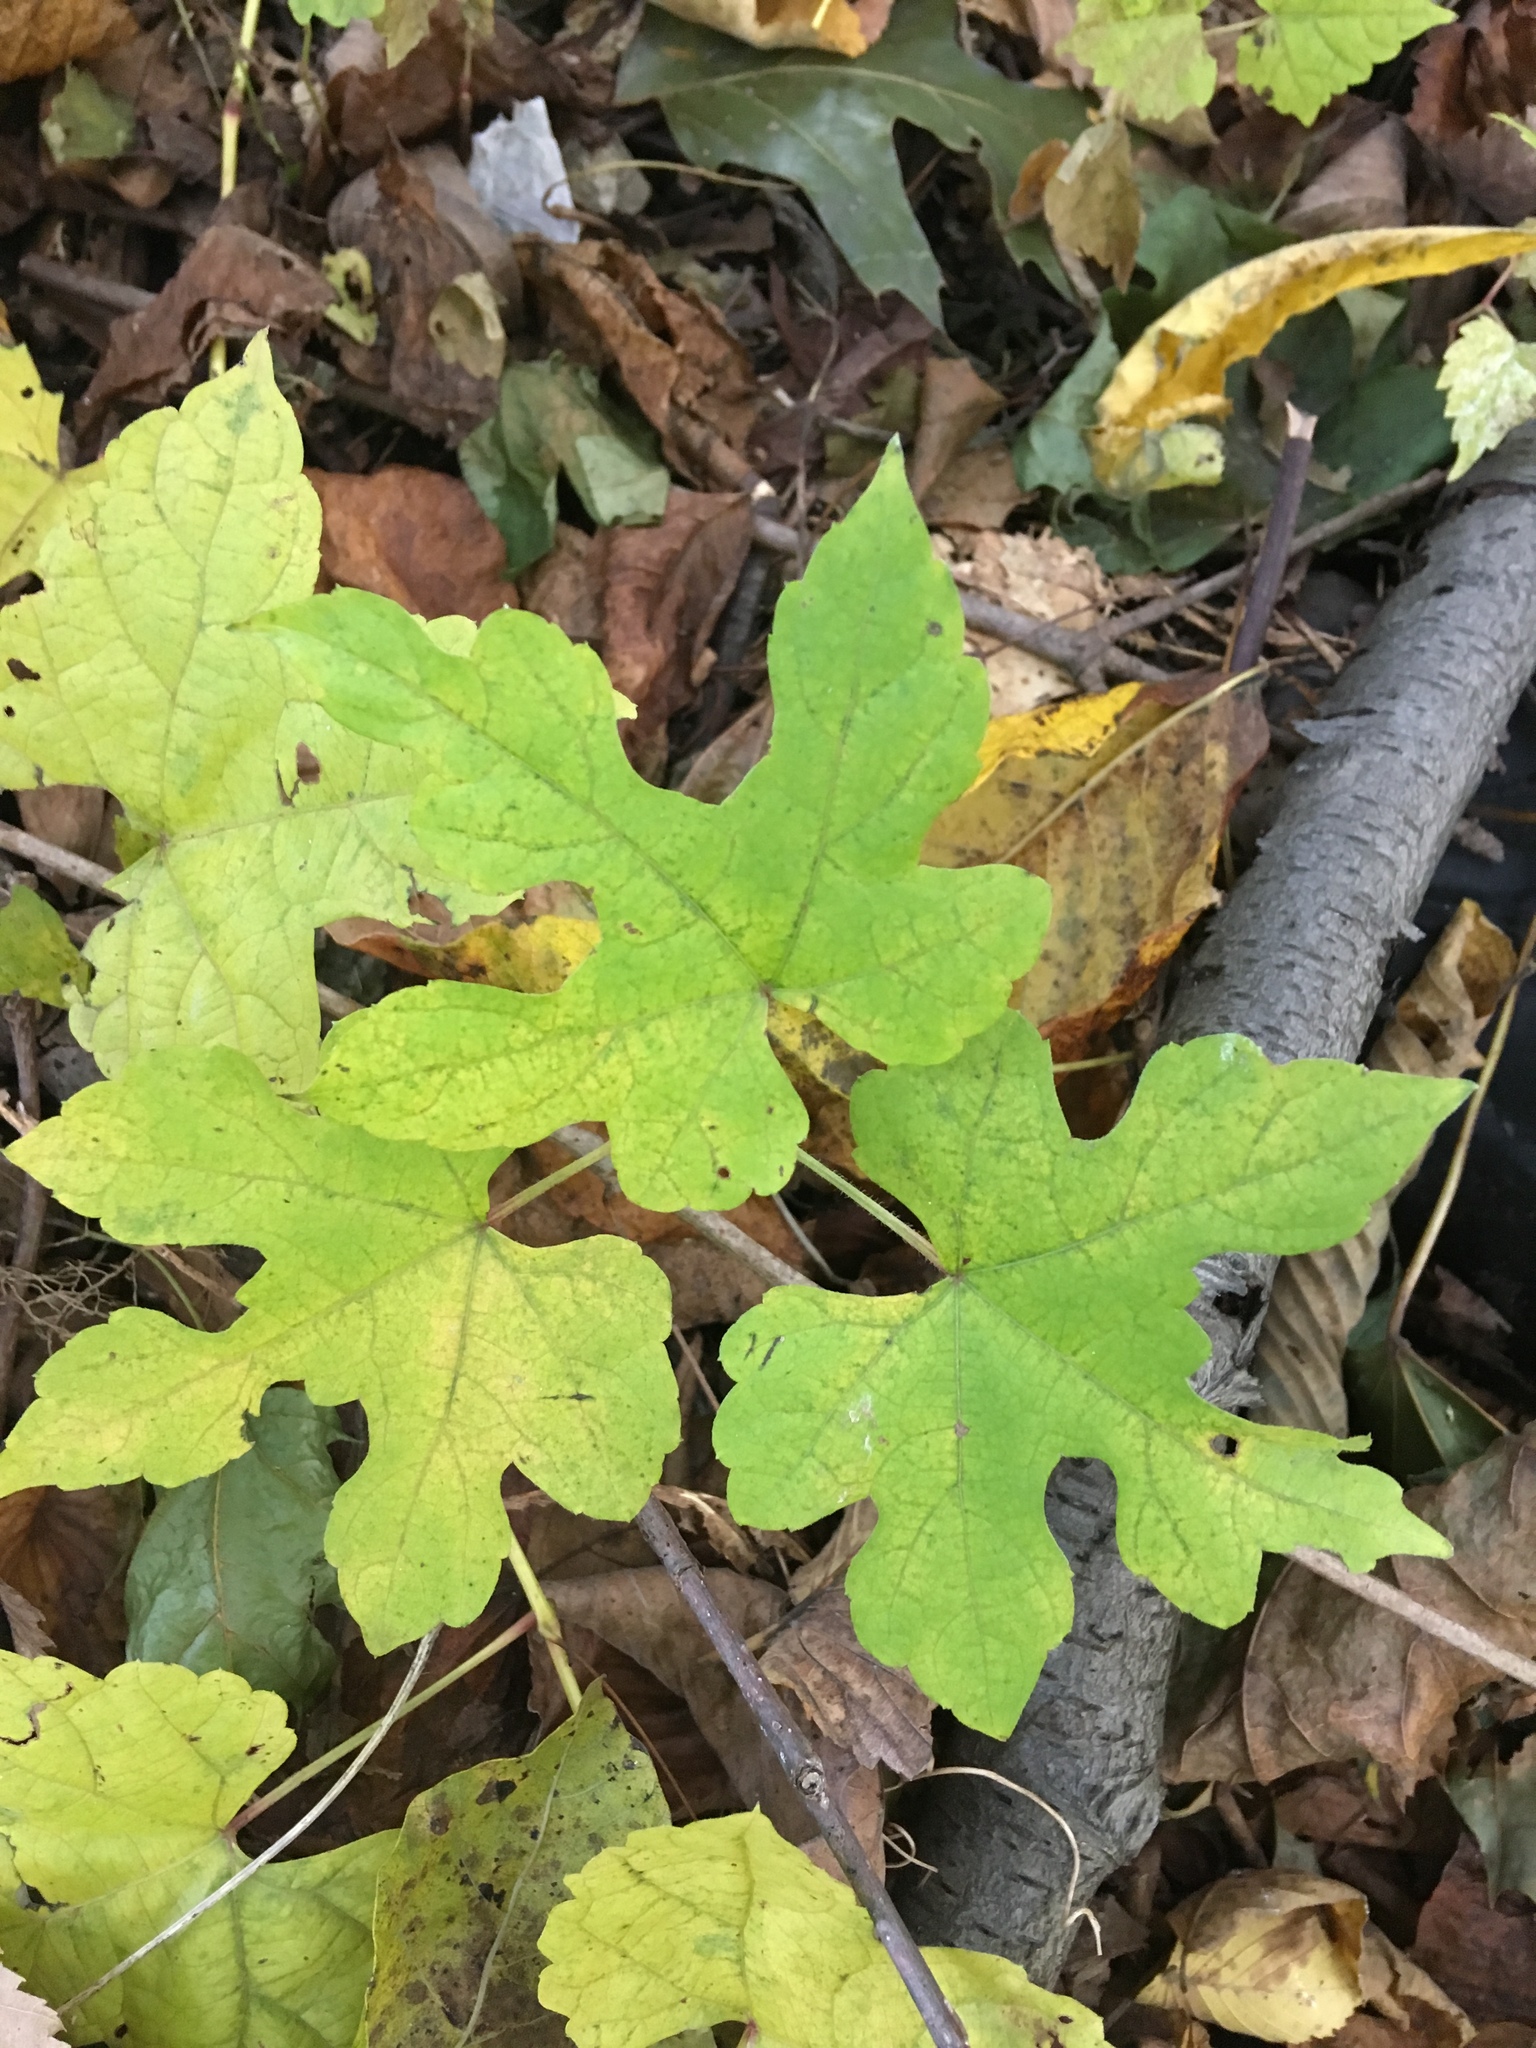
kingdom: Plantae
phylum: Tracheophyta
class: Magnoliopsida
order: Vitales
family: Vitaceae
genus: Ampelopsis
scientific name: Ampelopsis glandulosa
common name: Amur peppervine
